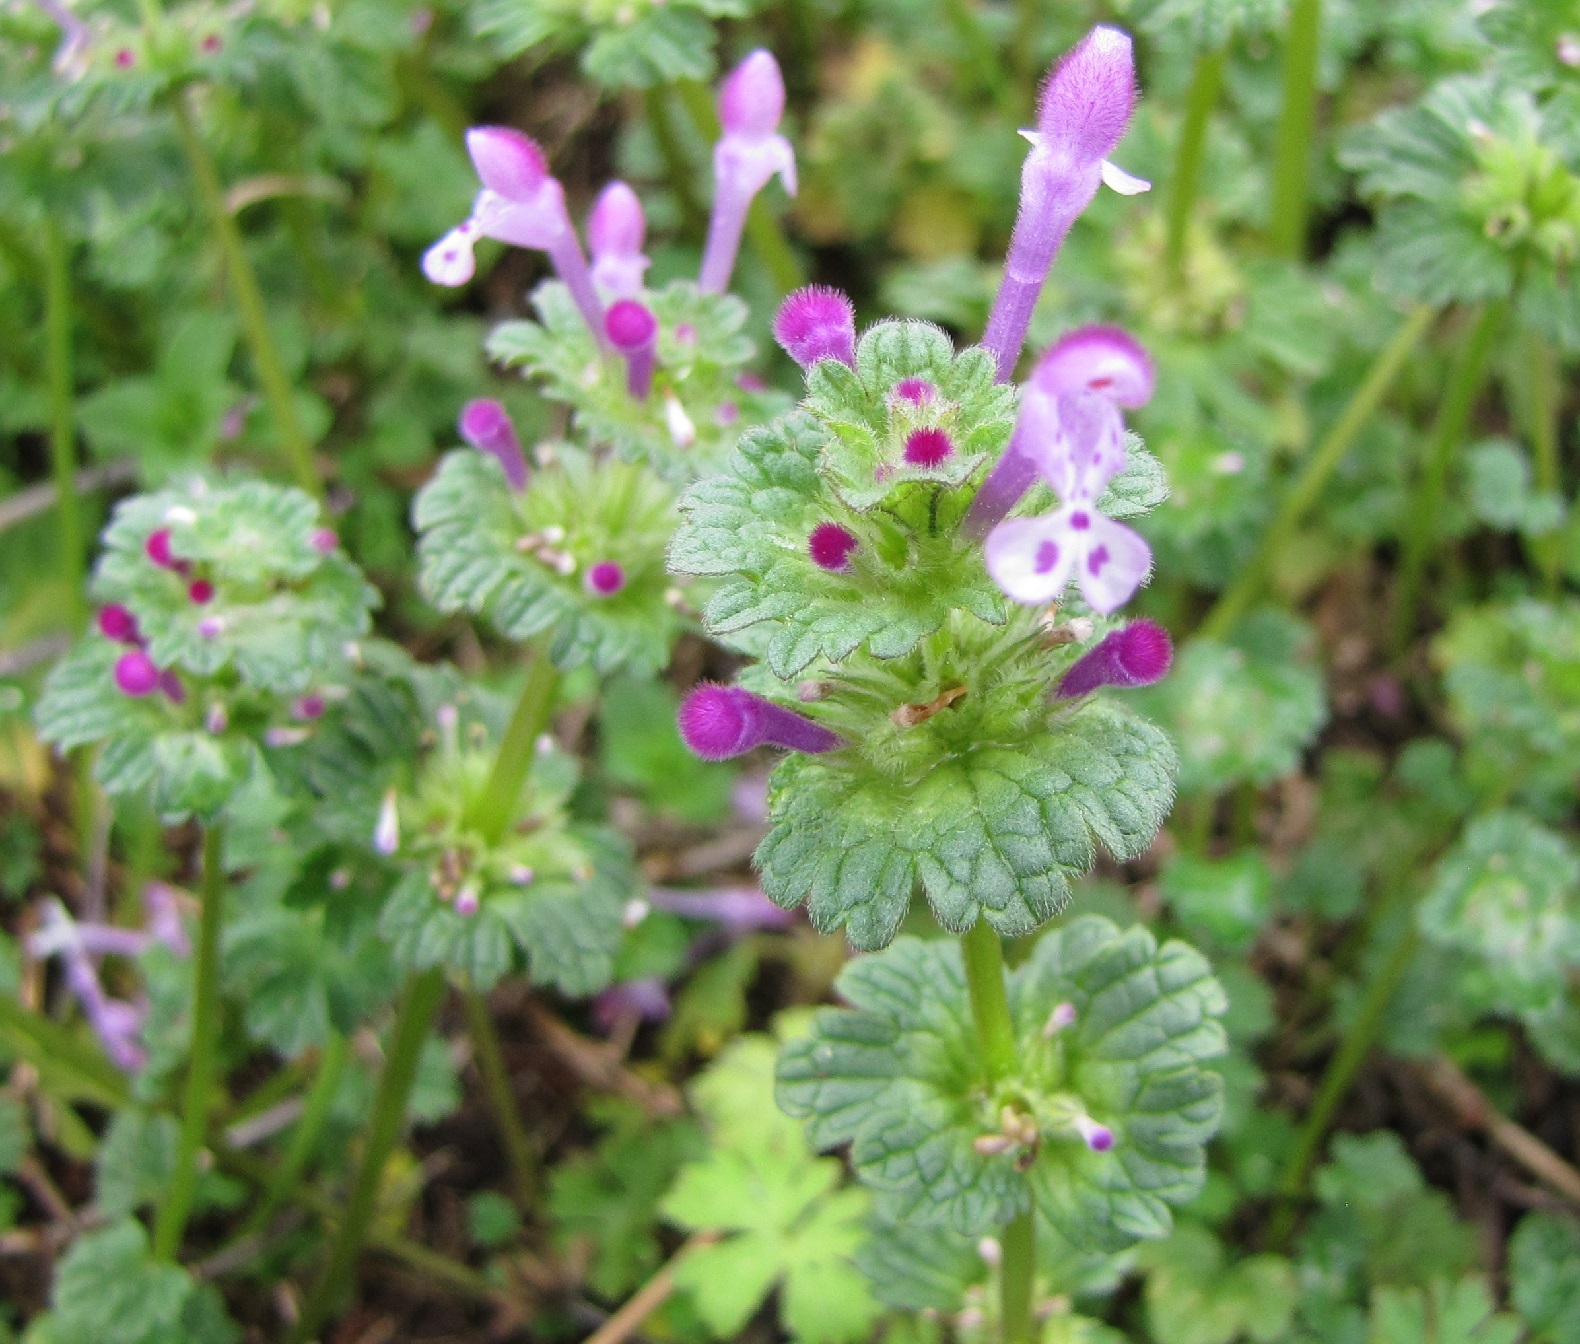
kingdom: Plantae
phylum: Tracheophyta
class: Magnoliopsida
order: Lamiales
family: Lamiaceae
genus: Lamium
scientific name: Lamium amplexicaule
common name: Henbit dead-nettle
